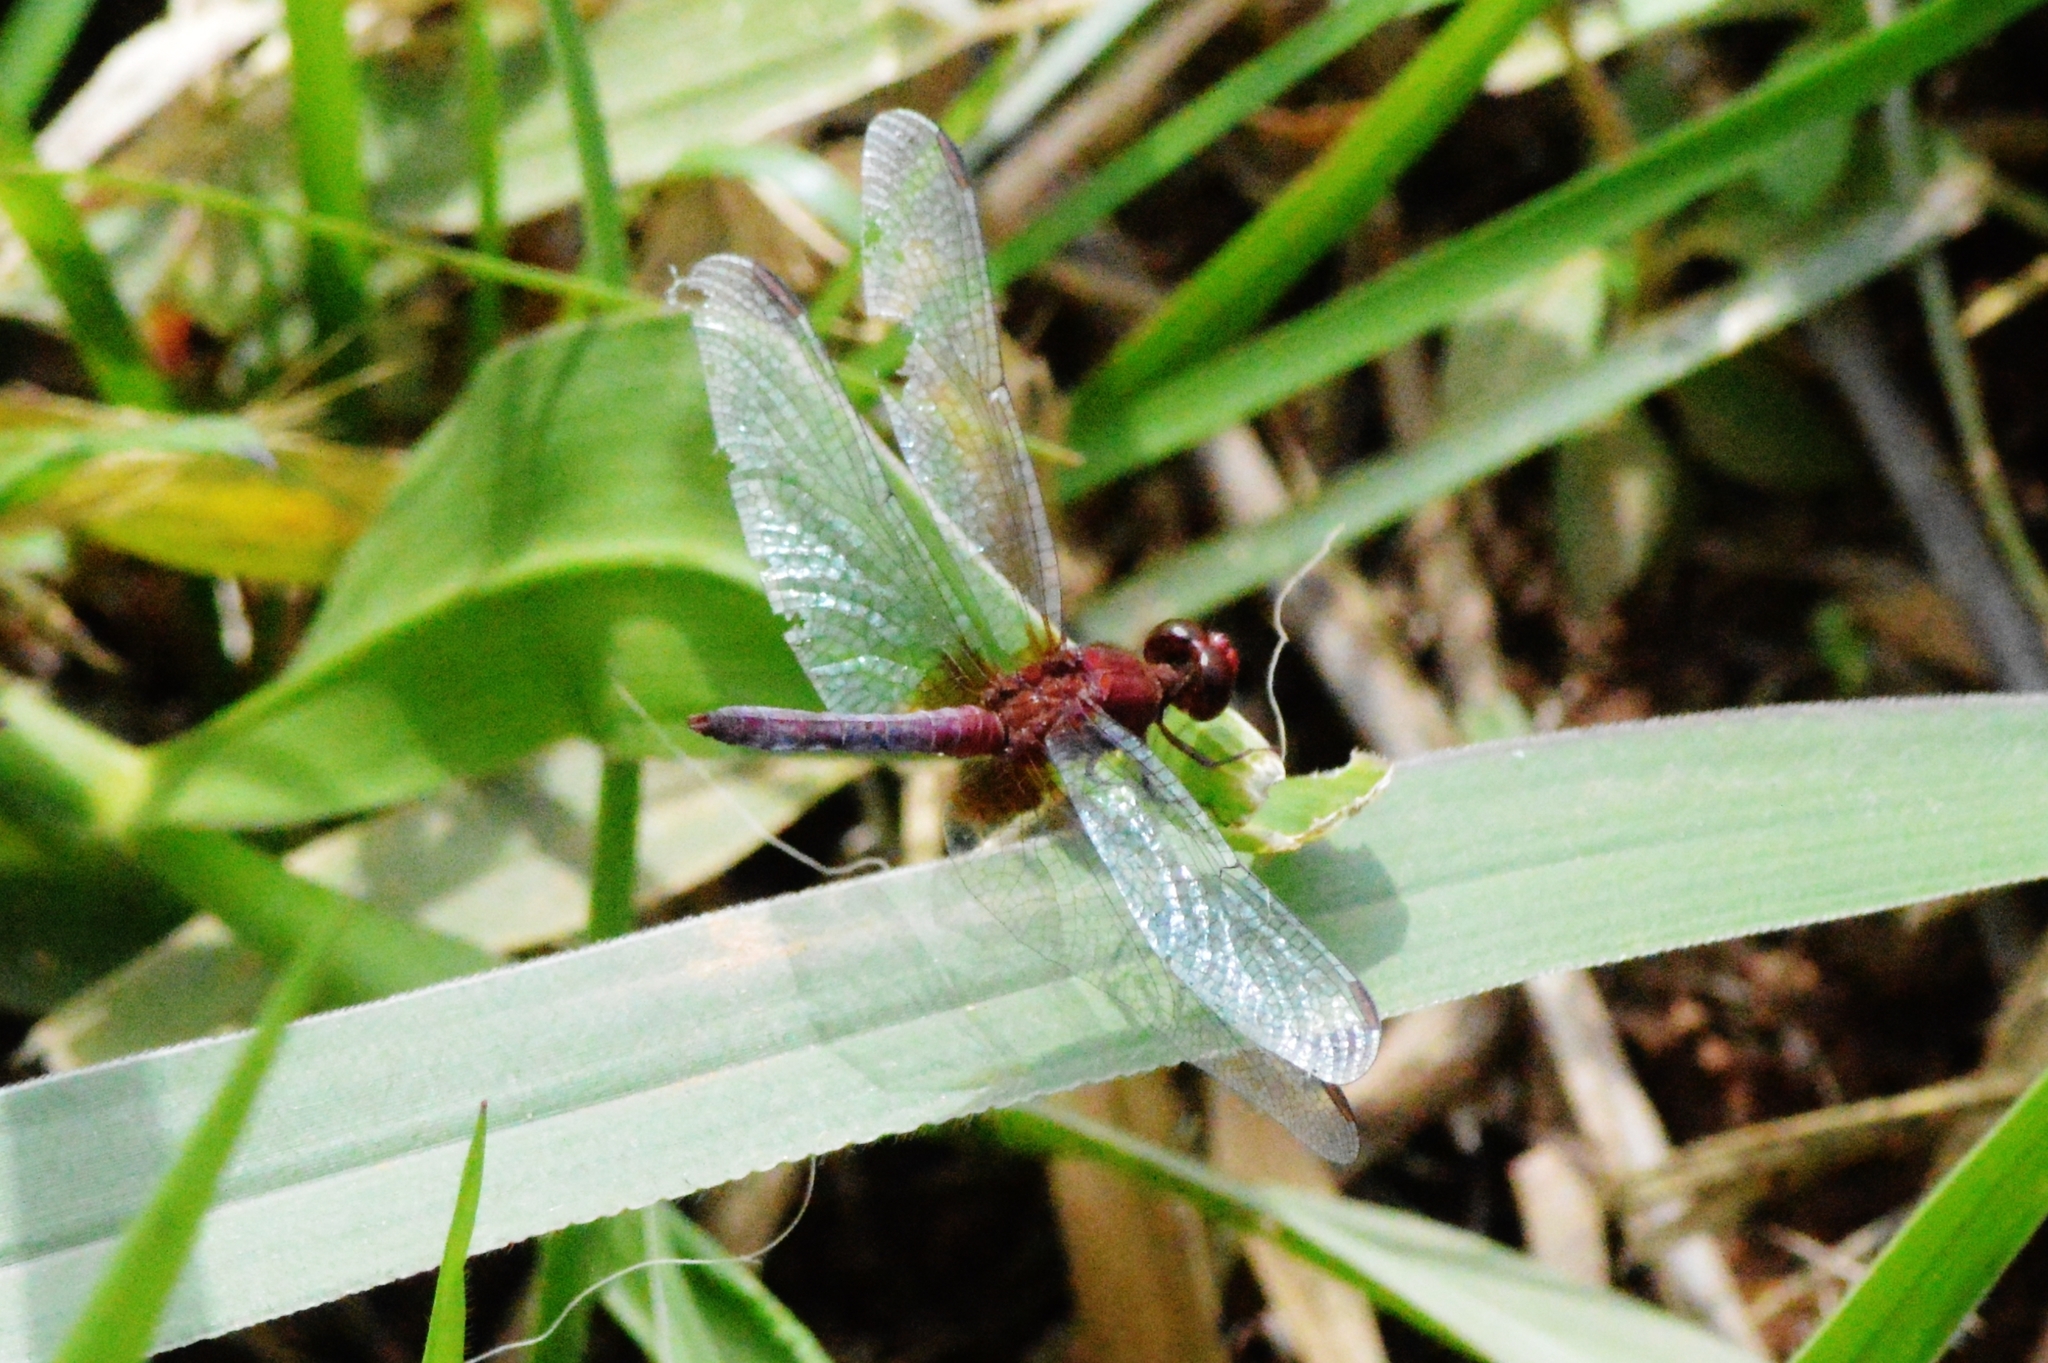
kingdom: Animalia
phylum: Arthropoda
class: Insecta
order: Odonata
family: Libellulidae
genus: Erythrodiplax
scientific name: Erythrodiplax fusca
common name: Red-faced dragonlet
